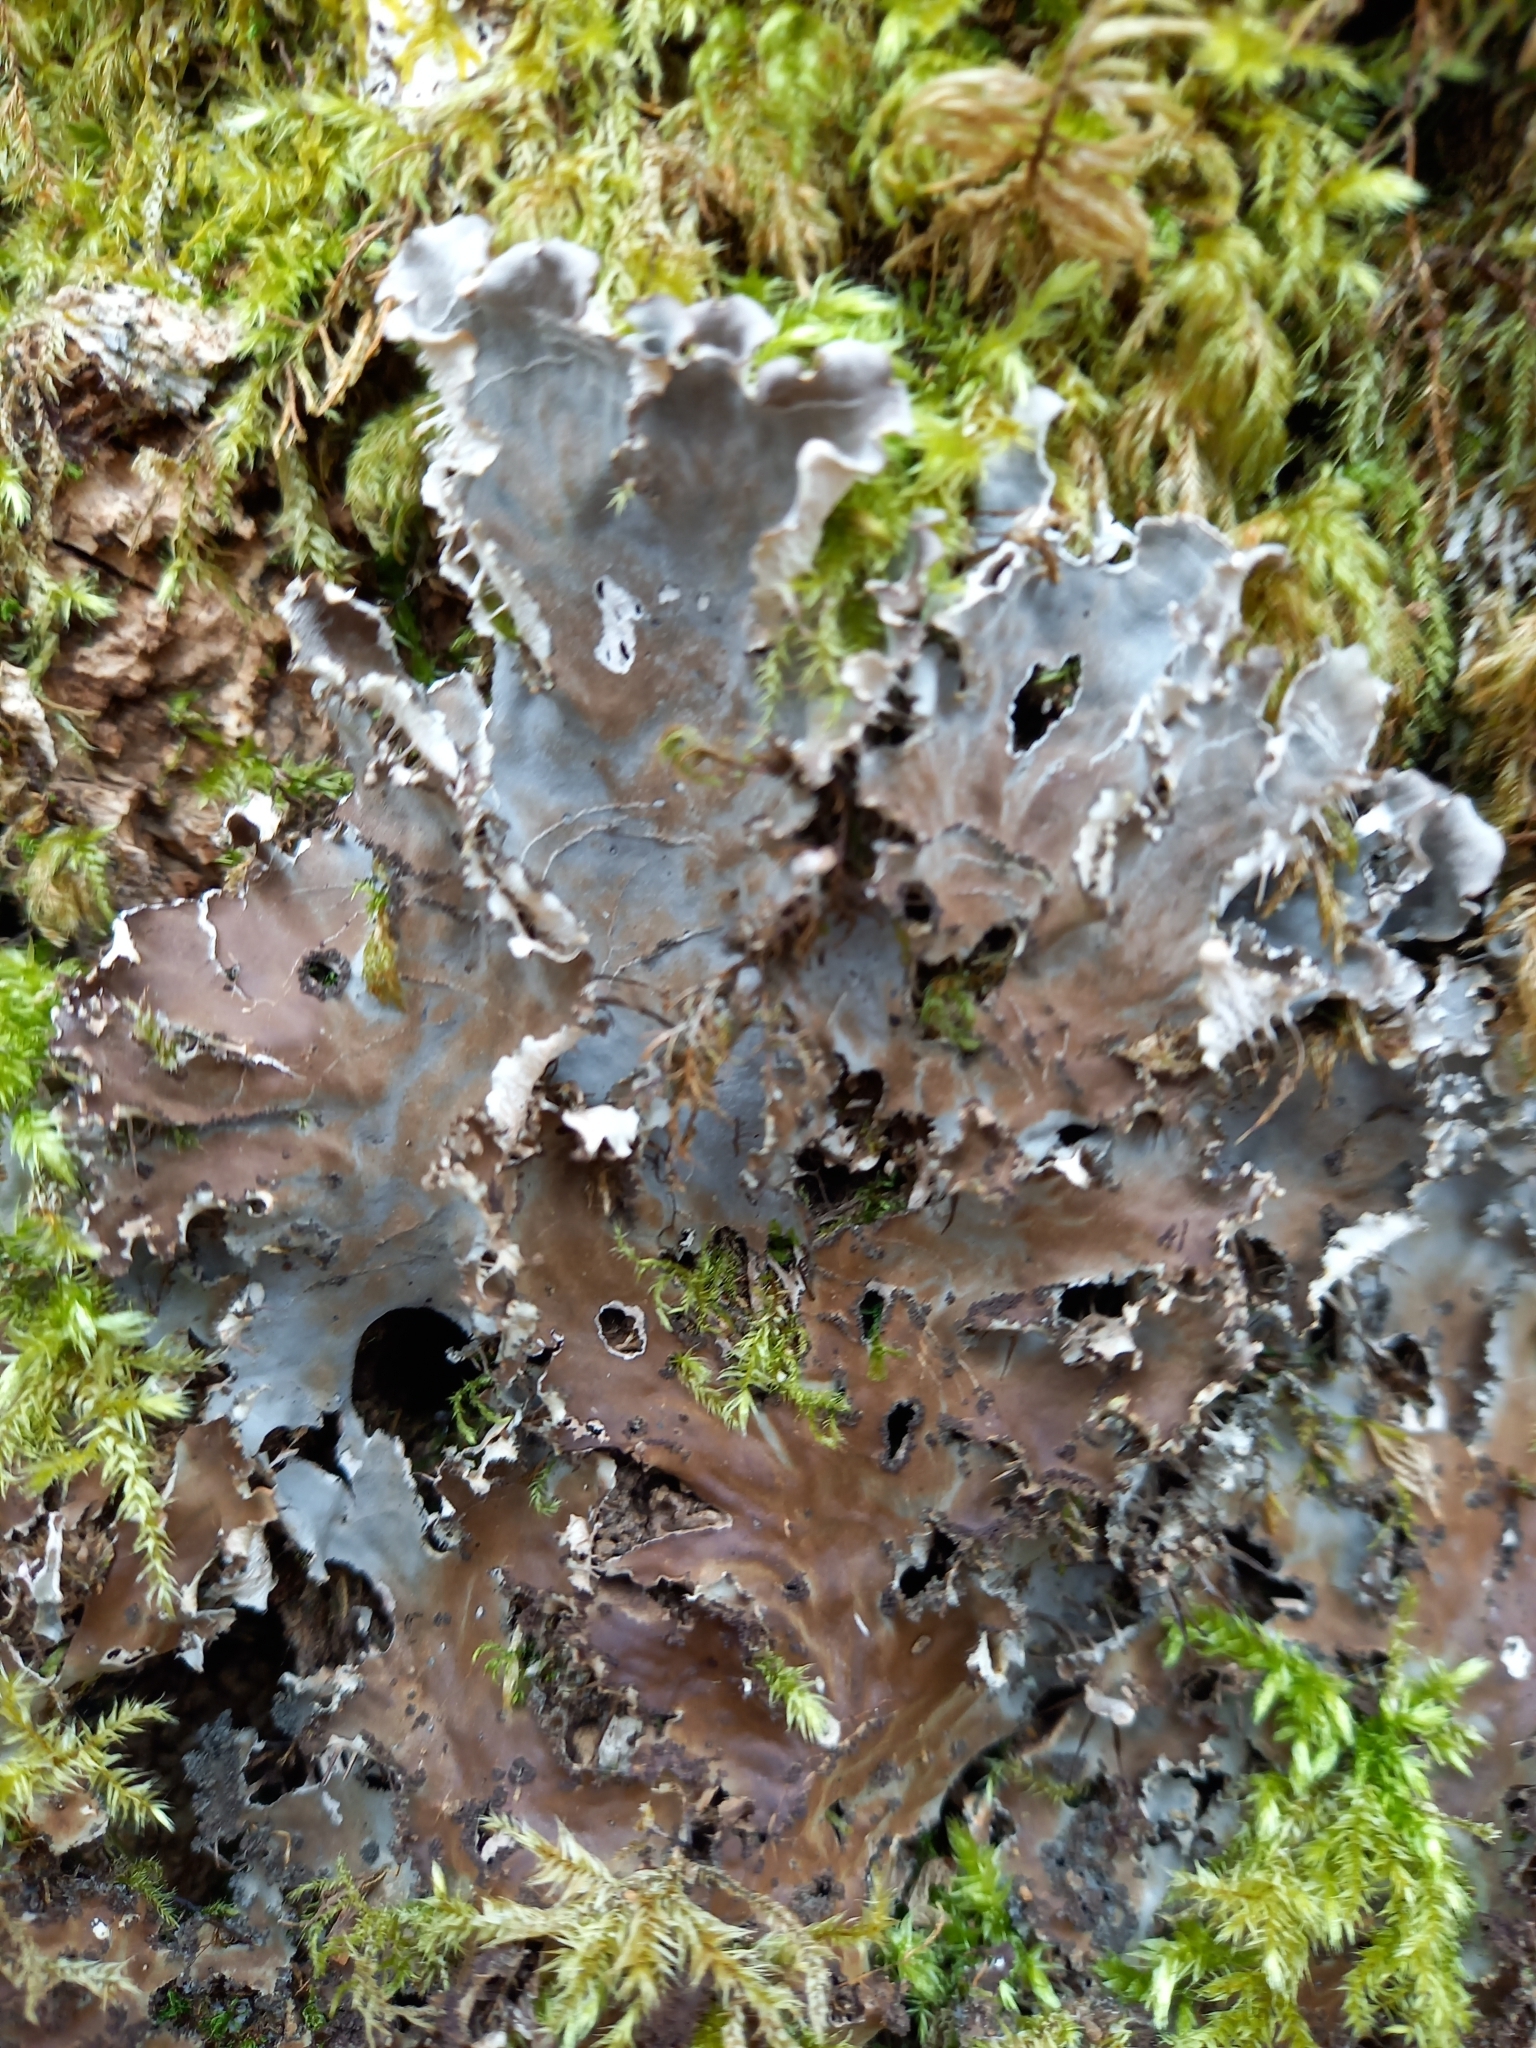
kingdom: Fungi
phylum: Ascomycota
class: Lecanoromycetes
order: Peltigerales
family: Peltigeraceae
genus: Peltigera
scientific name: Peltigera praetextata
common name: Scaly dog-lichen
